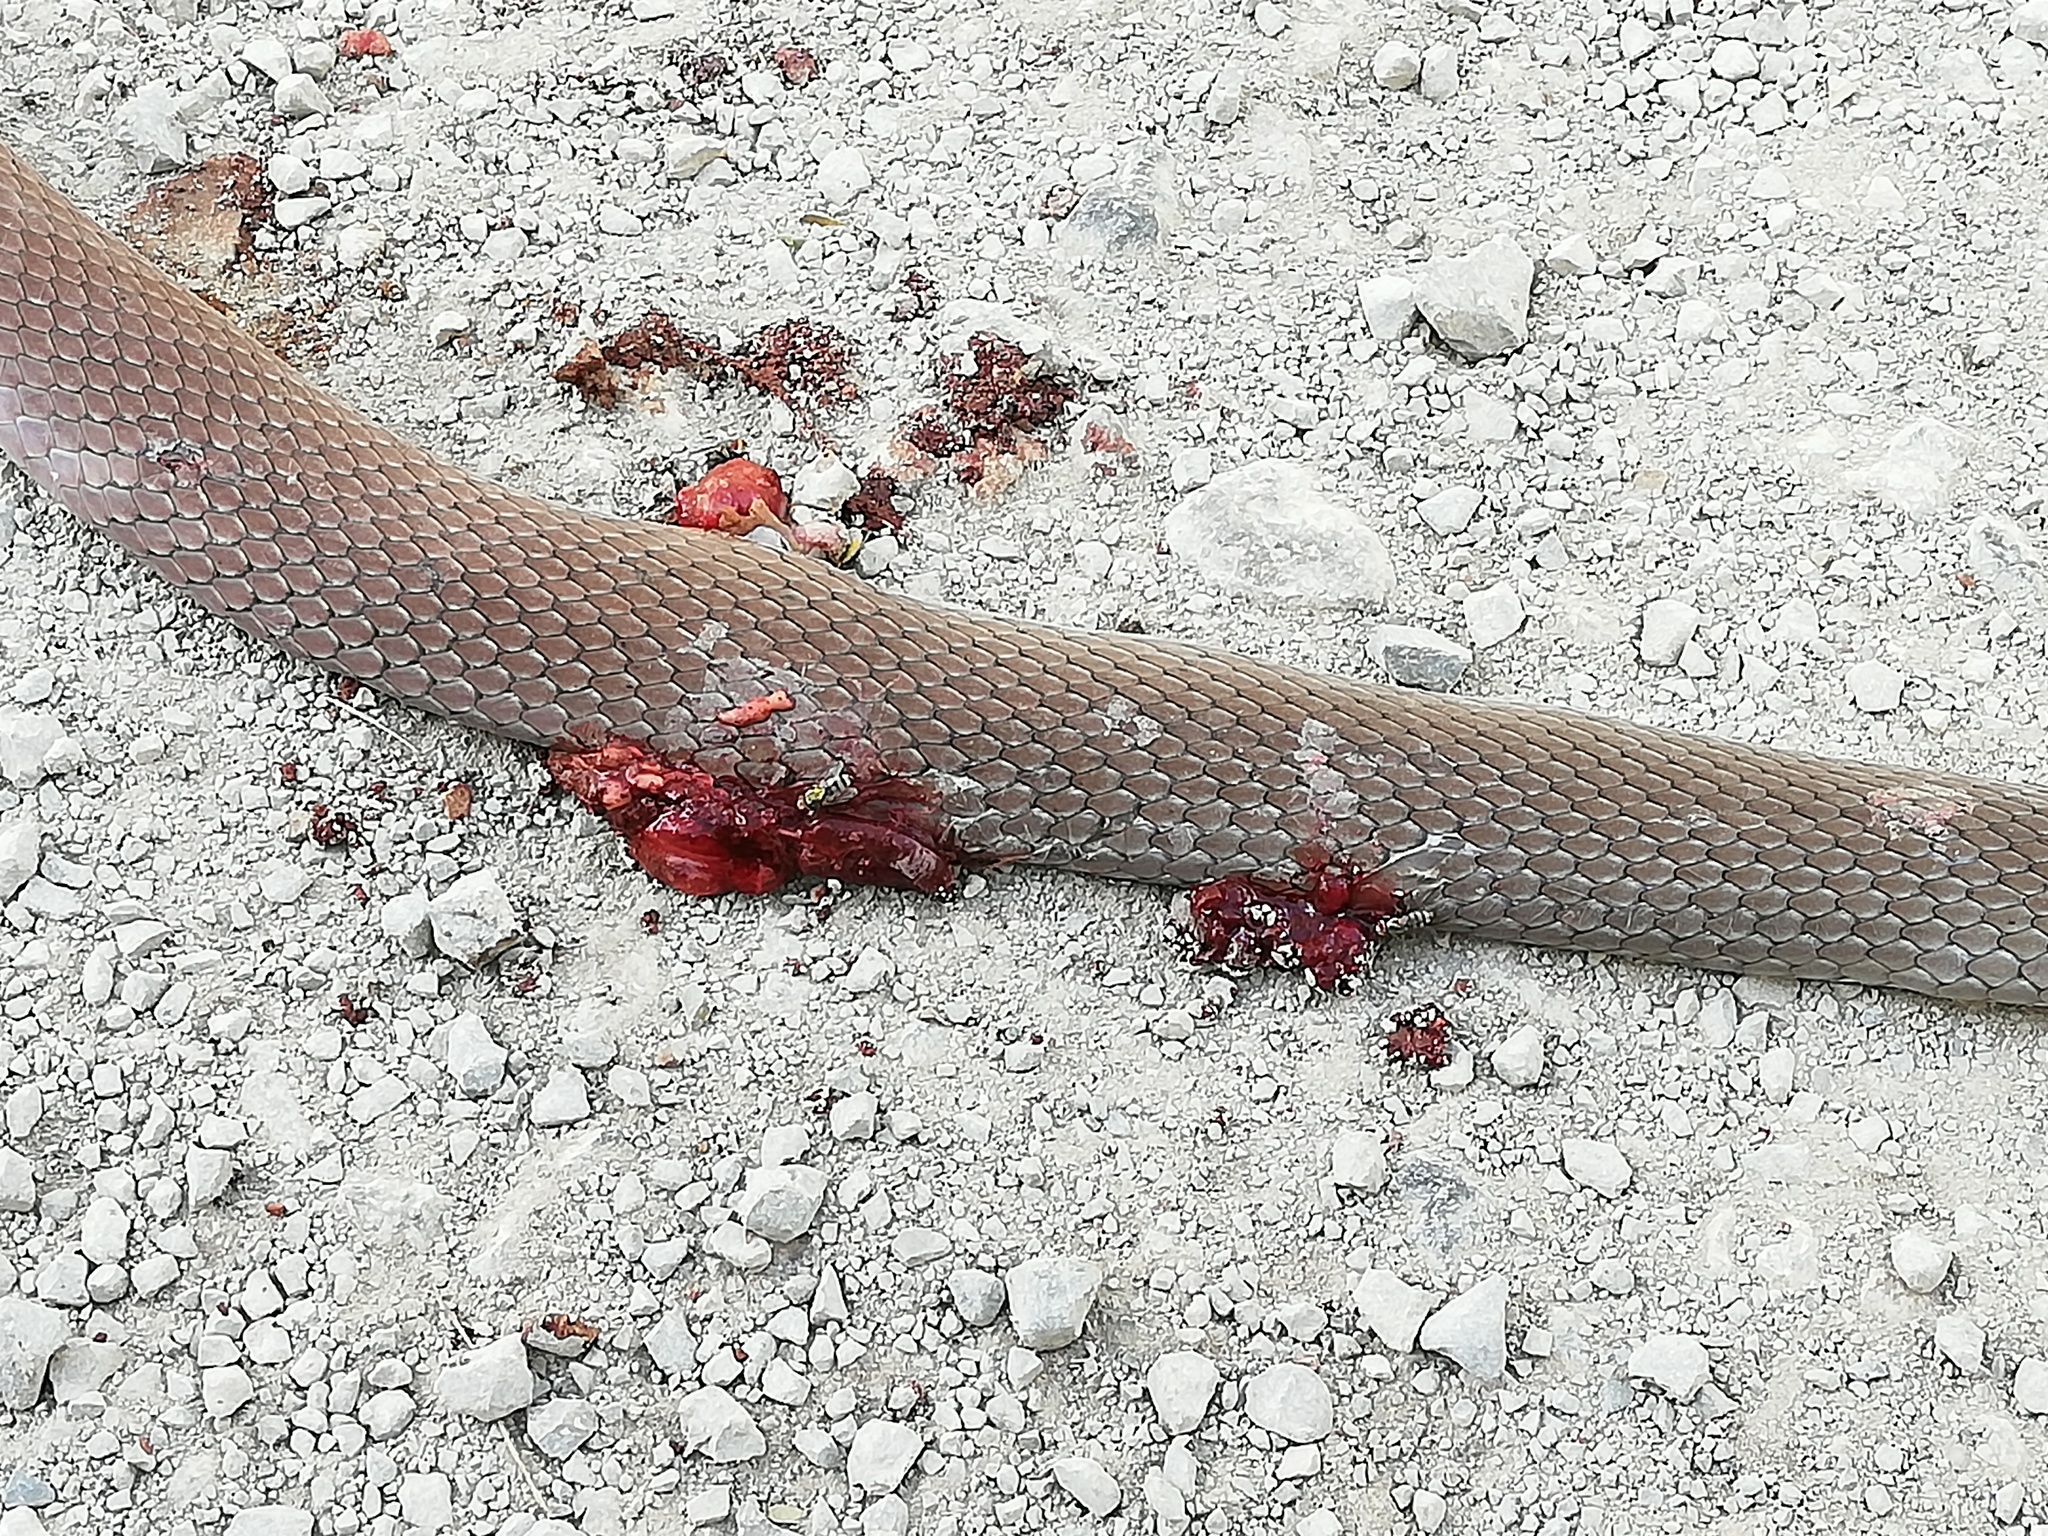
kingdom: Animalia
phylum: Chordata
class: Squamata
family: Colubridae
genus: Masticophis
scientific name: Masticophis mentovarius
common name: Neotropical whip snake
